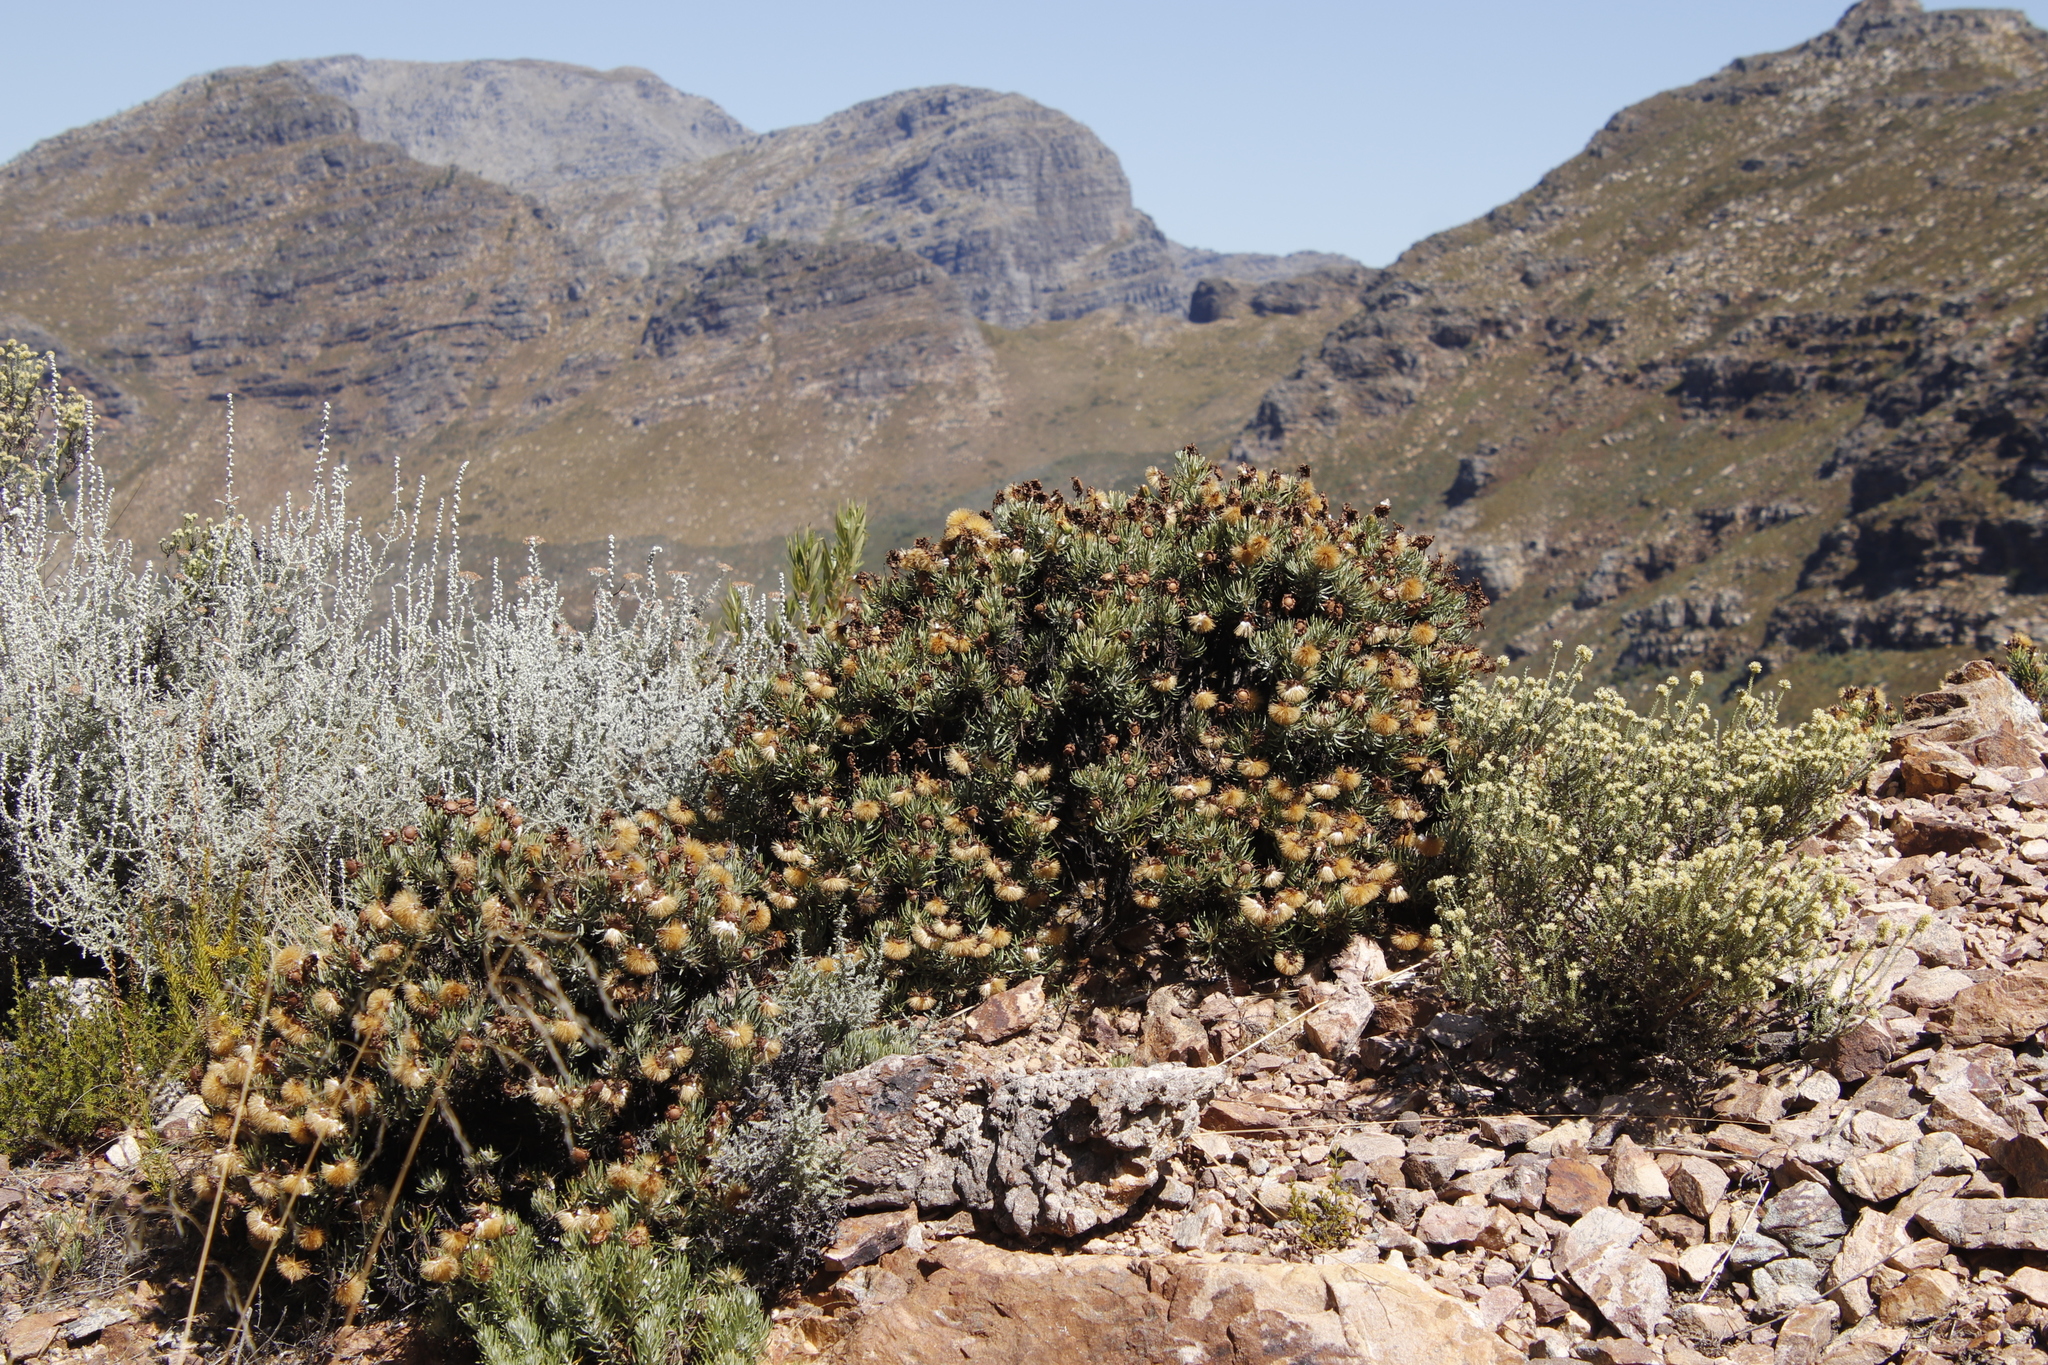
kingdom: Plantae
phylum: Tracheophyta
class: Magnoliopsida
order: Asterales
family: Asteraceae
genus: Heterolepis
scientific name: Heterolepis aliena
